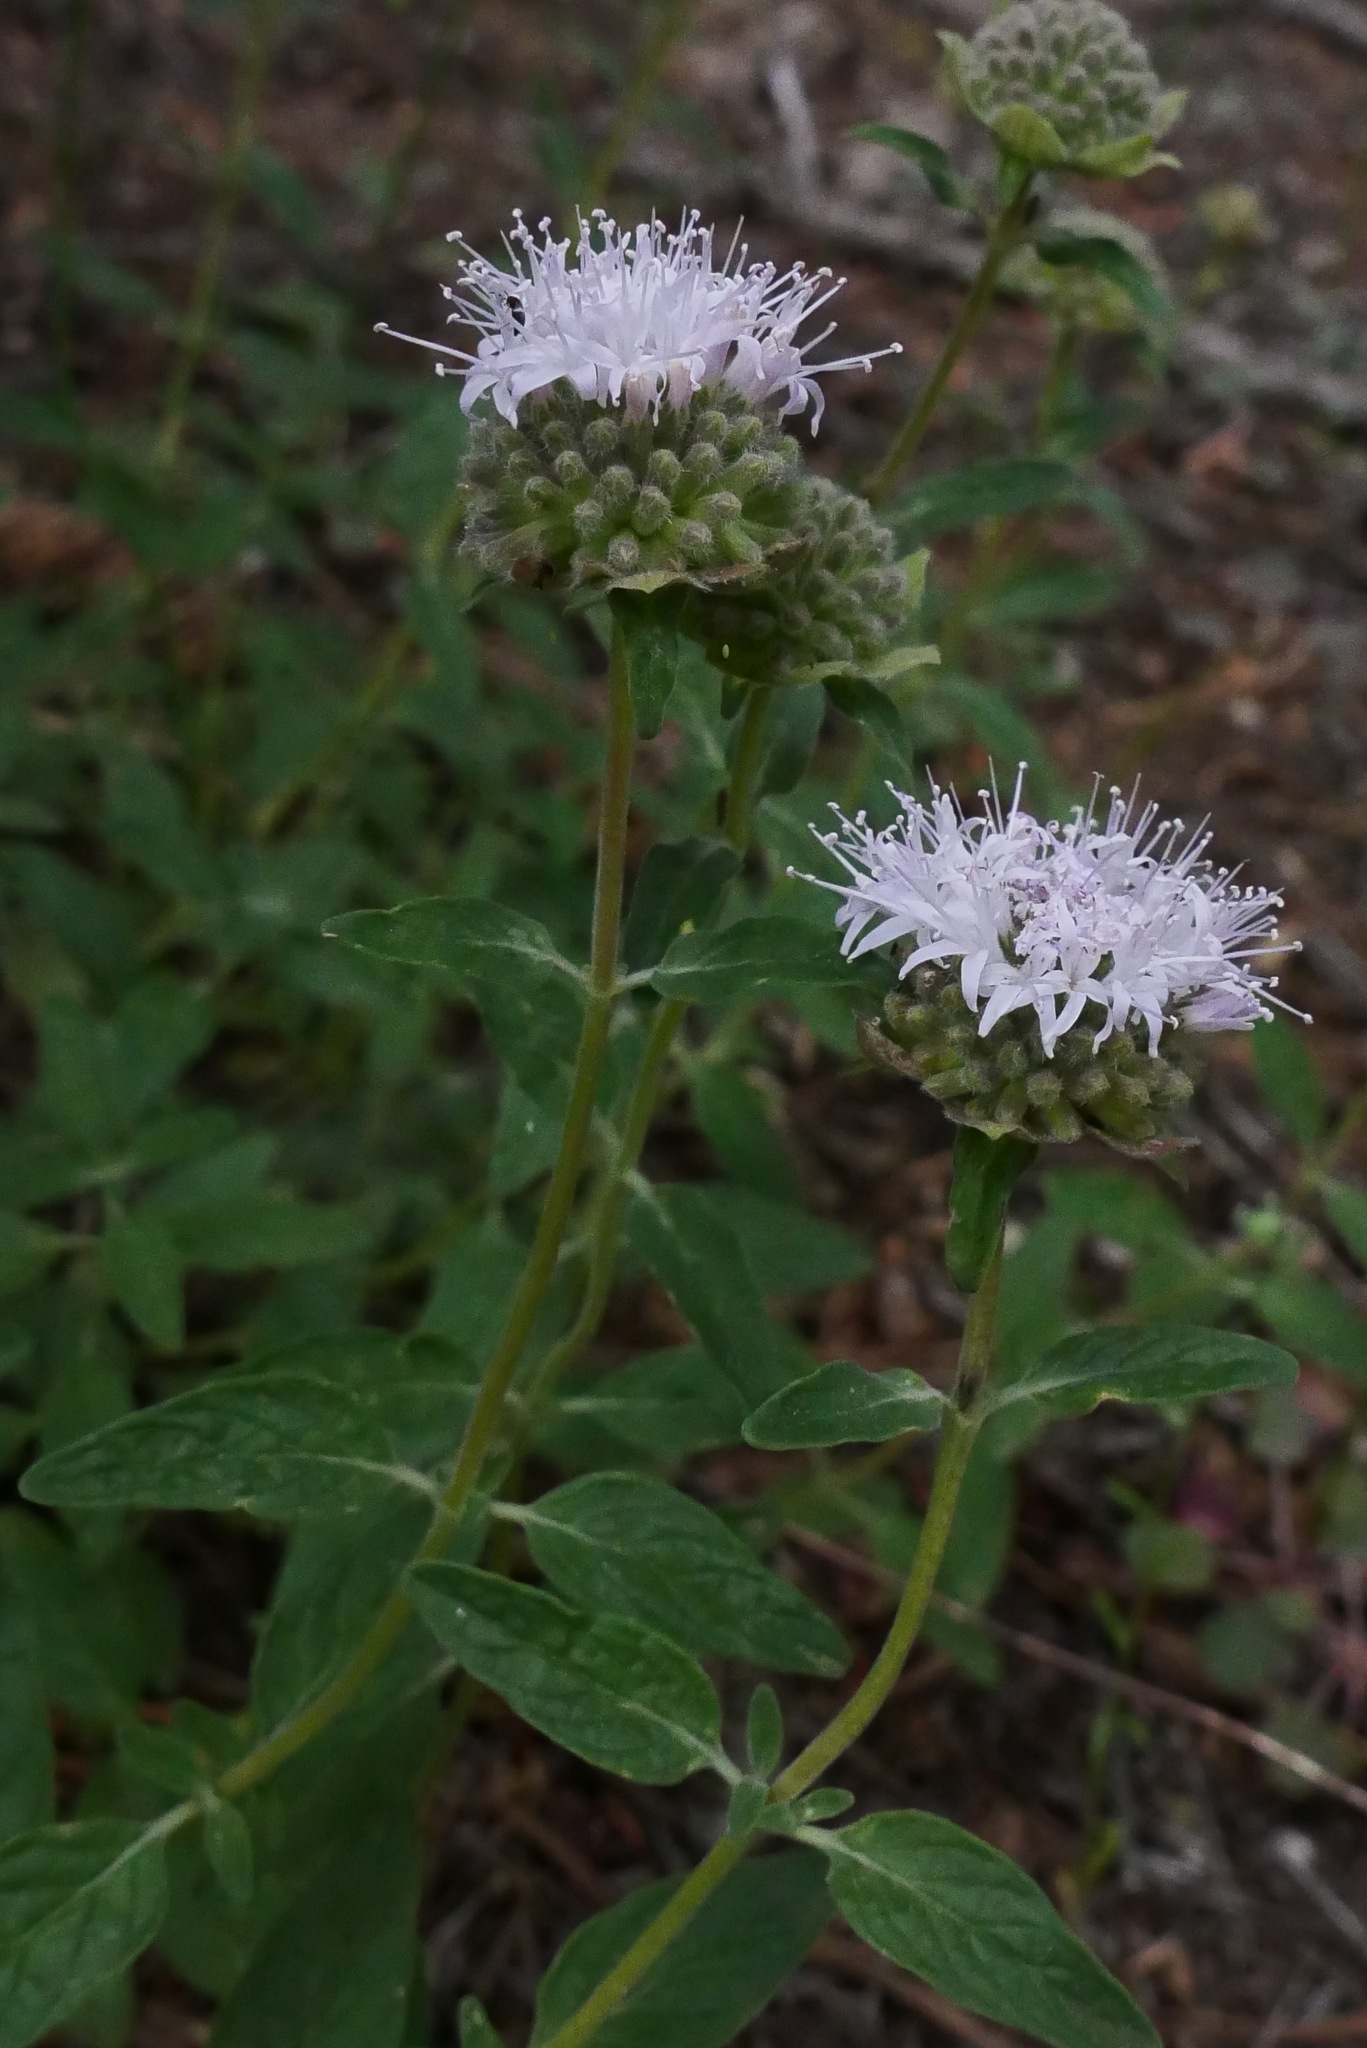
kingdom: Plantae
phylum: Tracheophyta
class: Magnoliopsida
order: Lamiales
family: Lamiaceae
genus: Monardella
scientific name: Monardella odoratissima
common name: Pacific monardella
